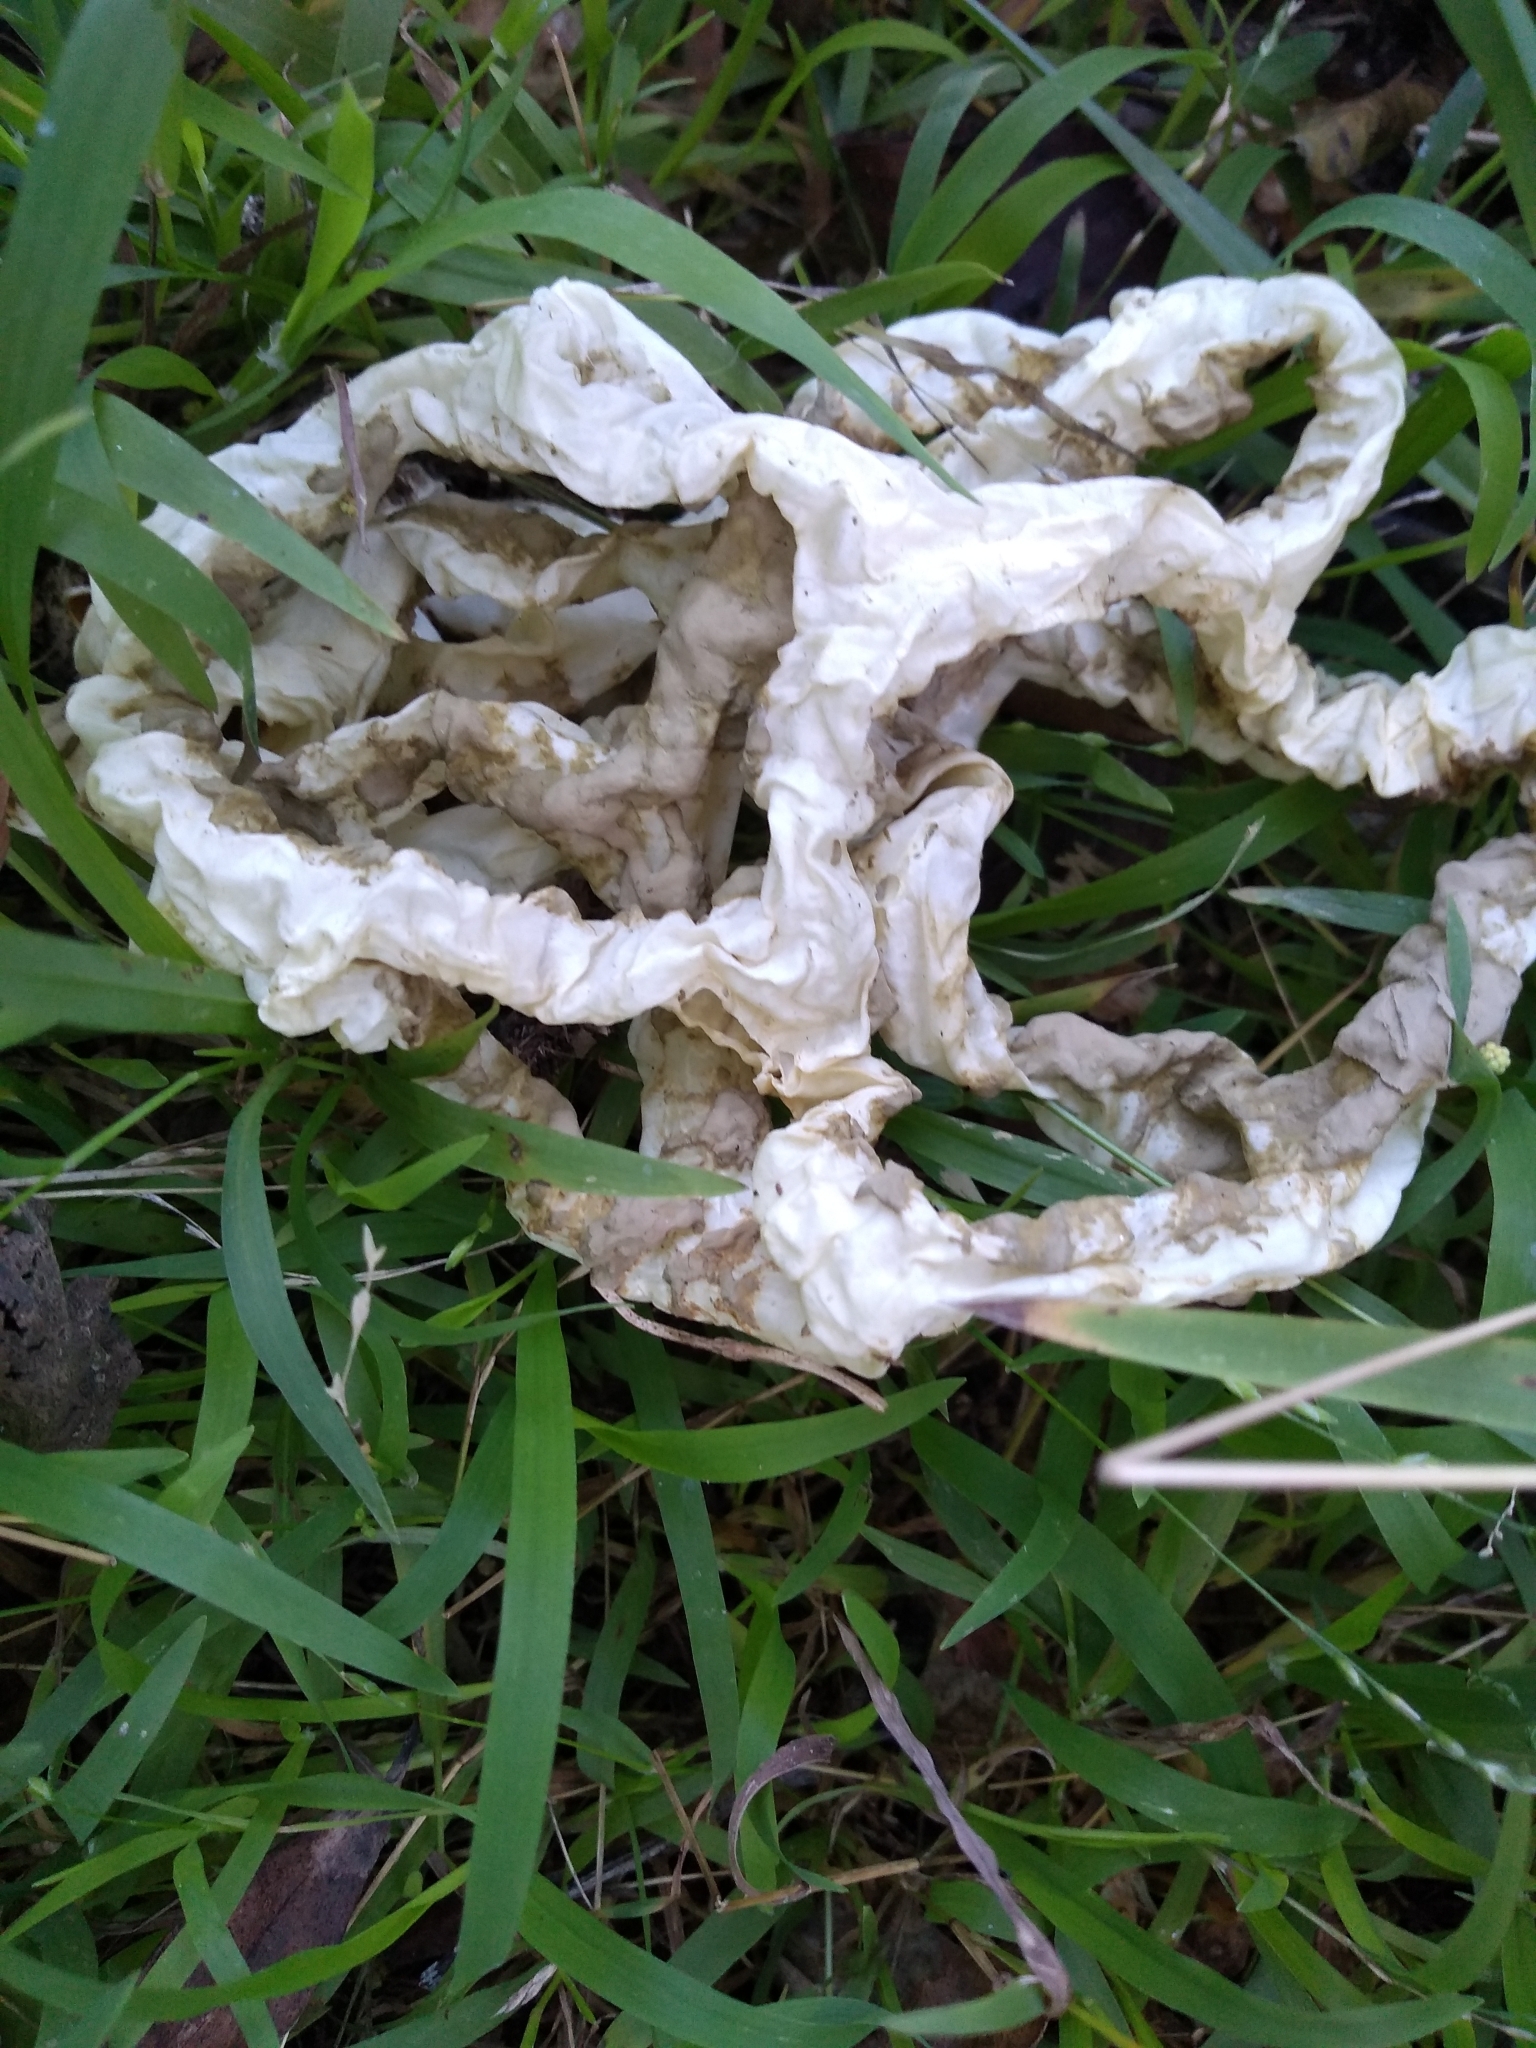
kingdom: Fungi
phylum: Basidiomycota
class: Agaricomycetes
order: Phallales
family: Phallaceae
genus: Ileodictyon
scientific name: Ileodictyon cibarium
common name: Basket fungus
